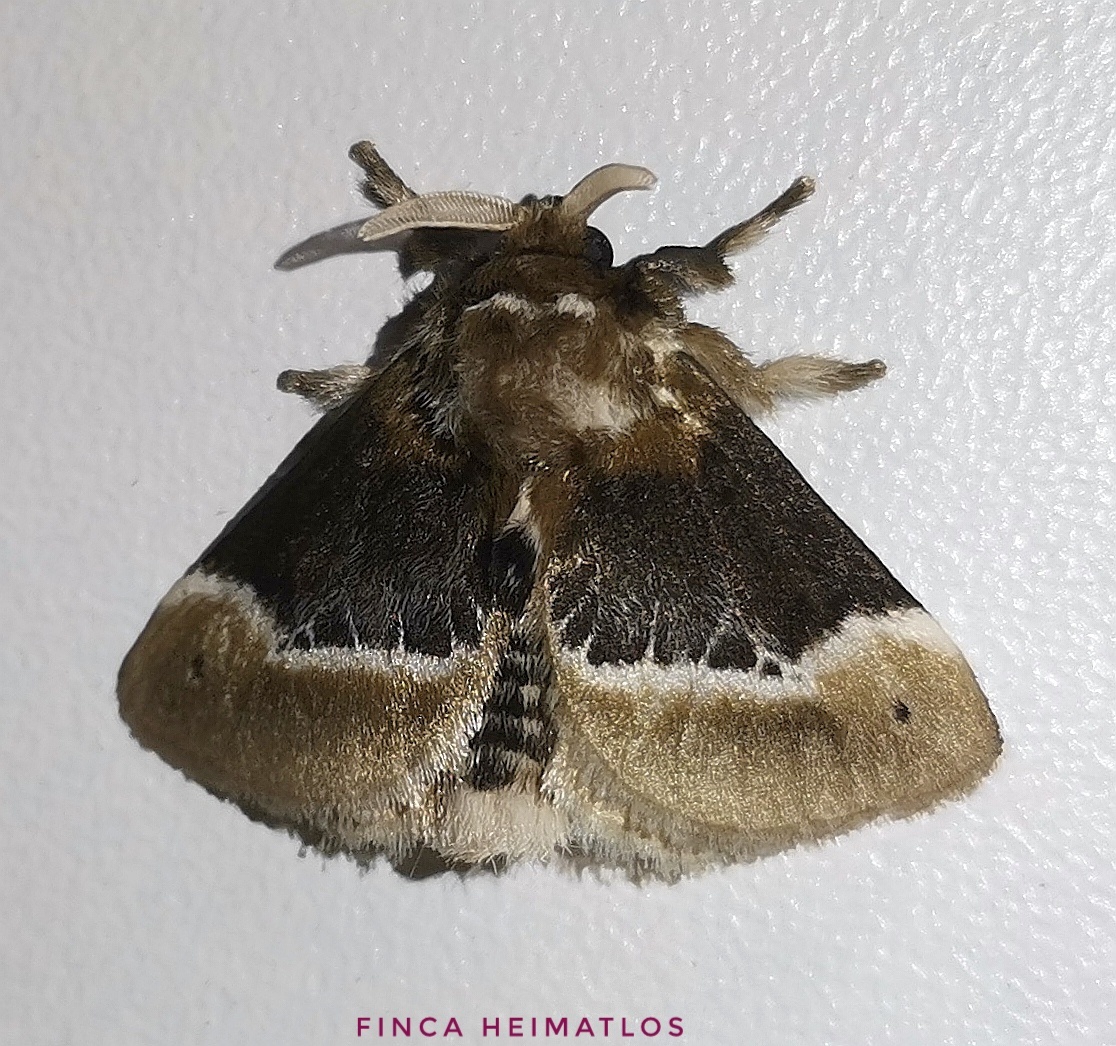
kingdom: Animalia
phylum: Arthropoda
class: Insecta
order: Lepidoptera
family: Megalopygidae
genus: Podalia
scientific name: Podalia prolecta
